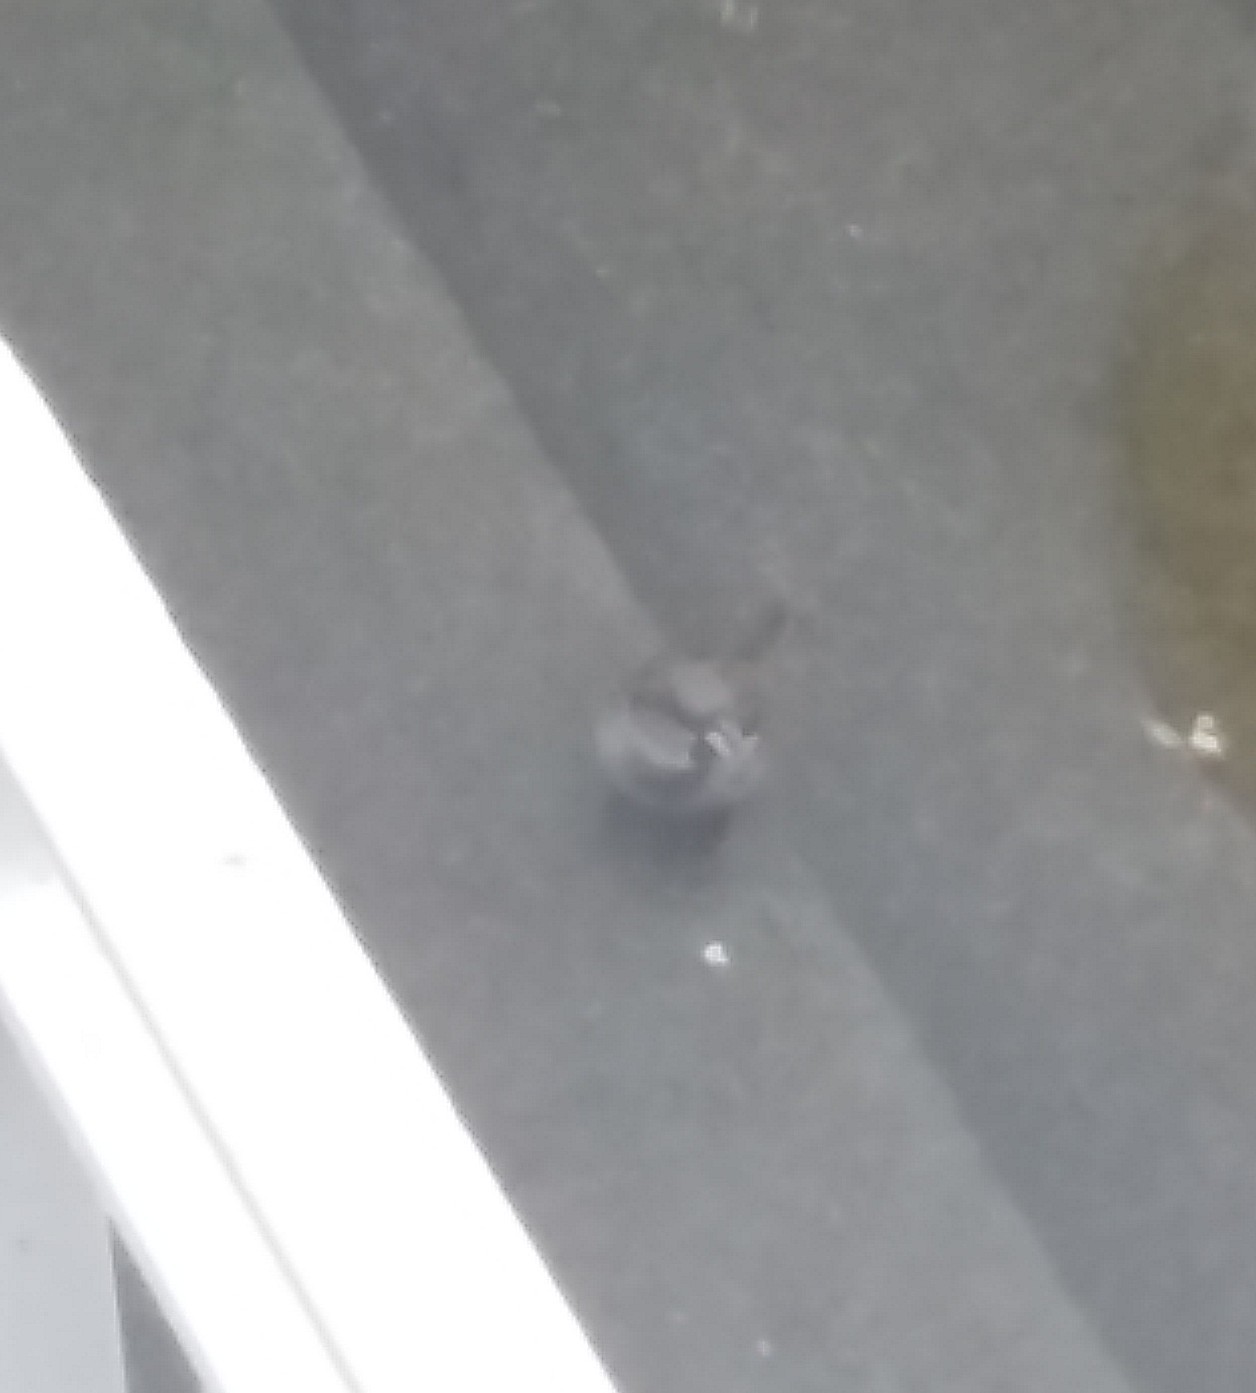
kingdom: Animalia
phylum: Chordata
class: Aves
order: Passeriformes
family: Passeridae
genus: Passer
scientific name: Passer domesticus
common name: House sparrow
